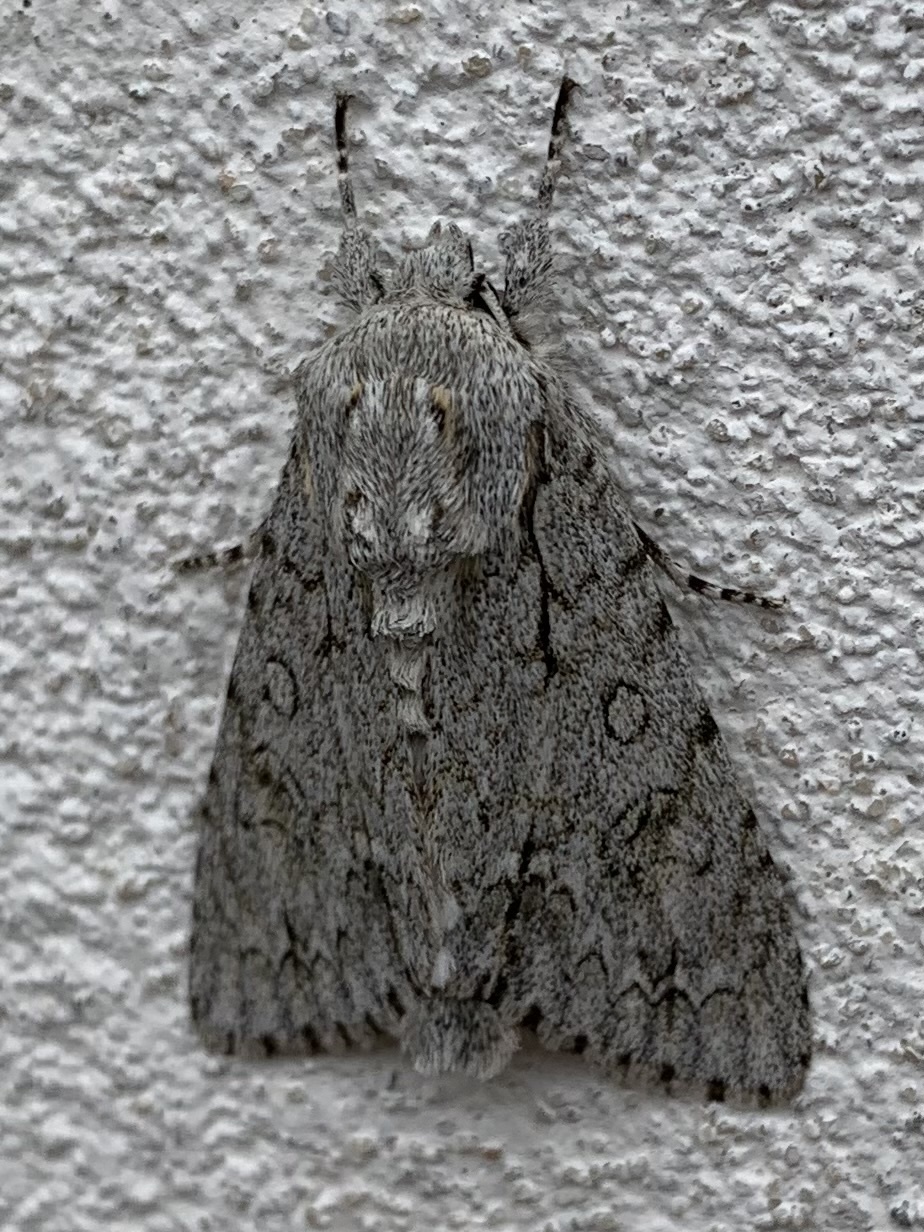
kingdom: Animalia
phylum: Arthropoda
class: Insecta
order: Lepidoptera
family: Noctuidae
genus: Acronicta
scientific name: Acronicta aceris
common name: Sycamore
